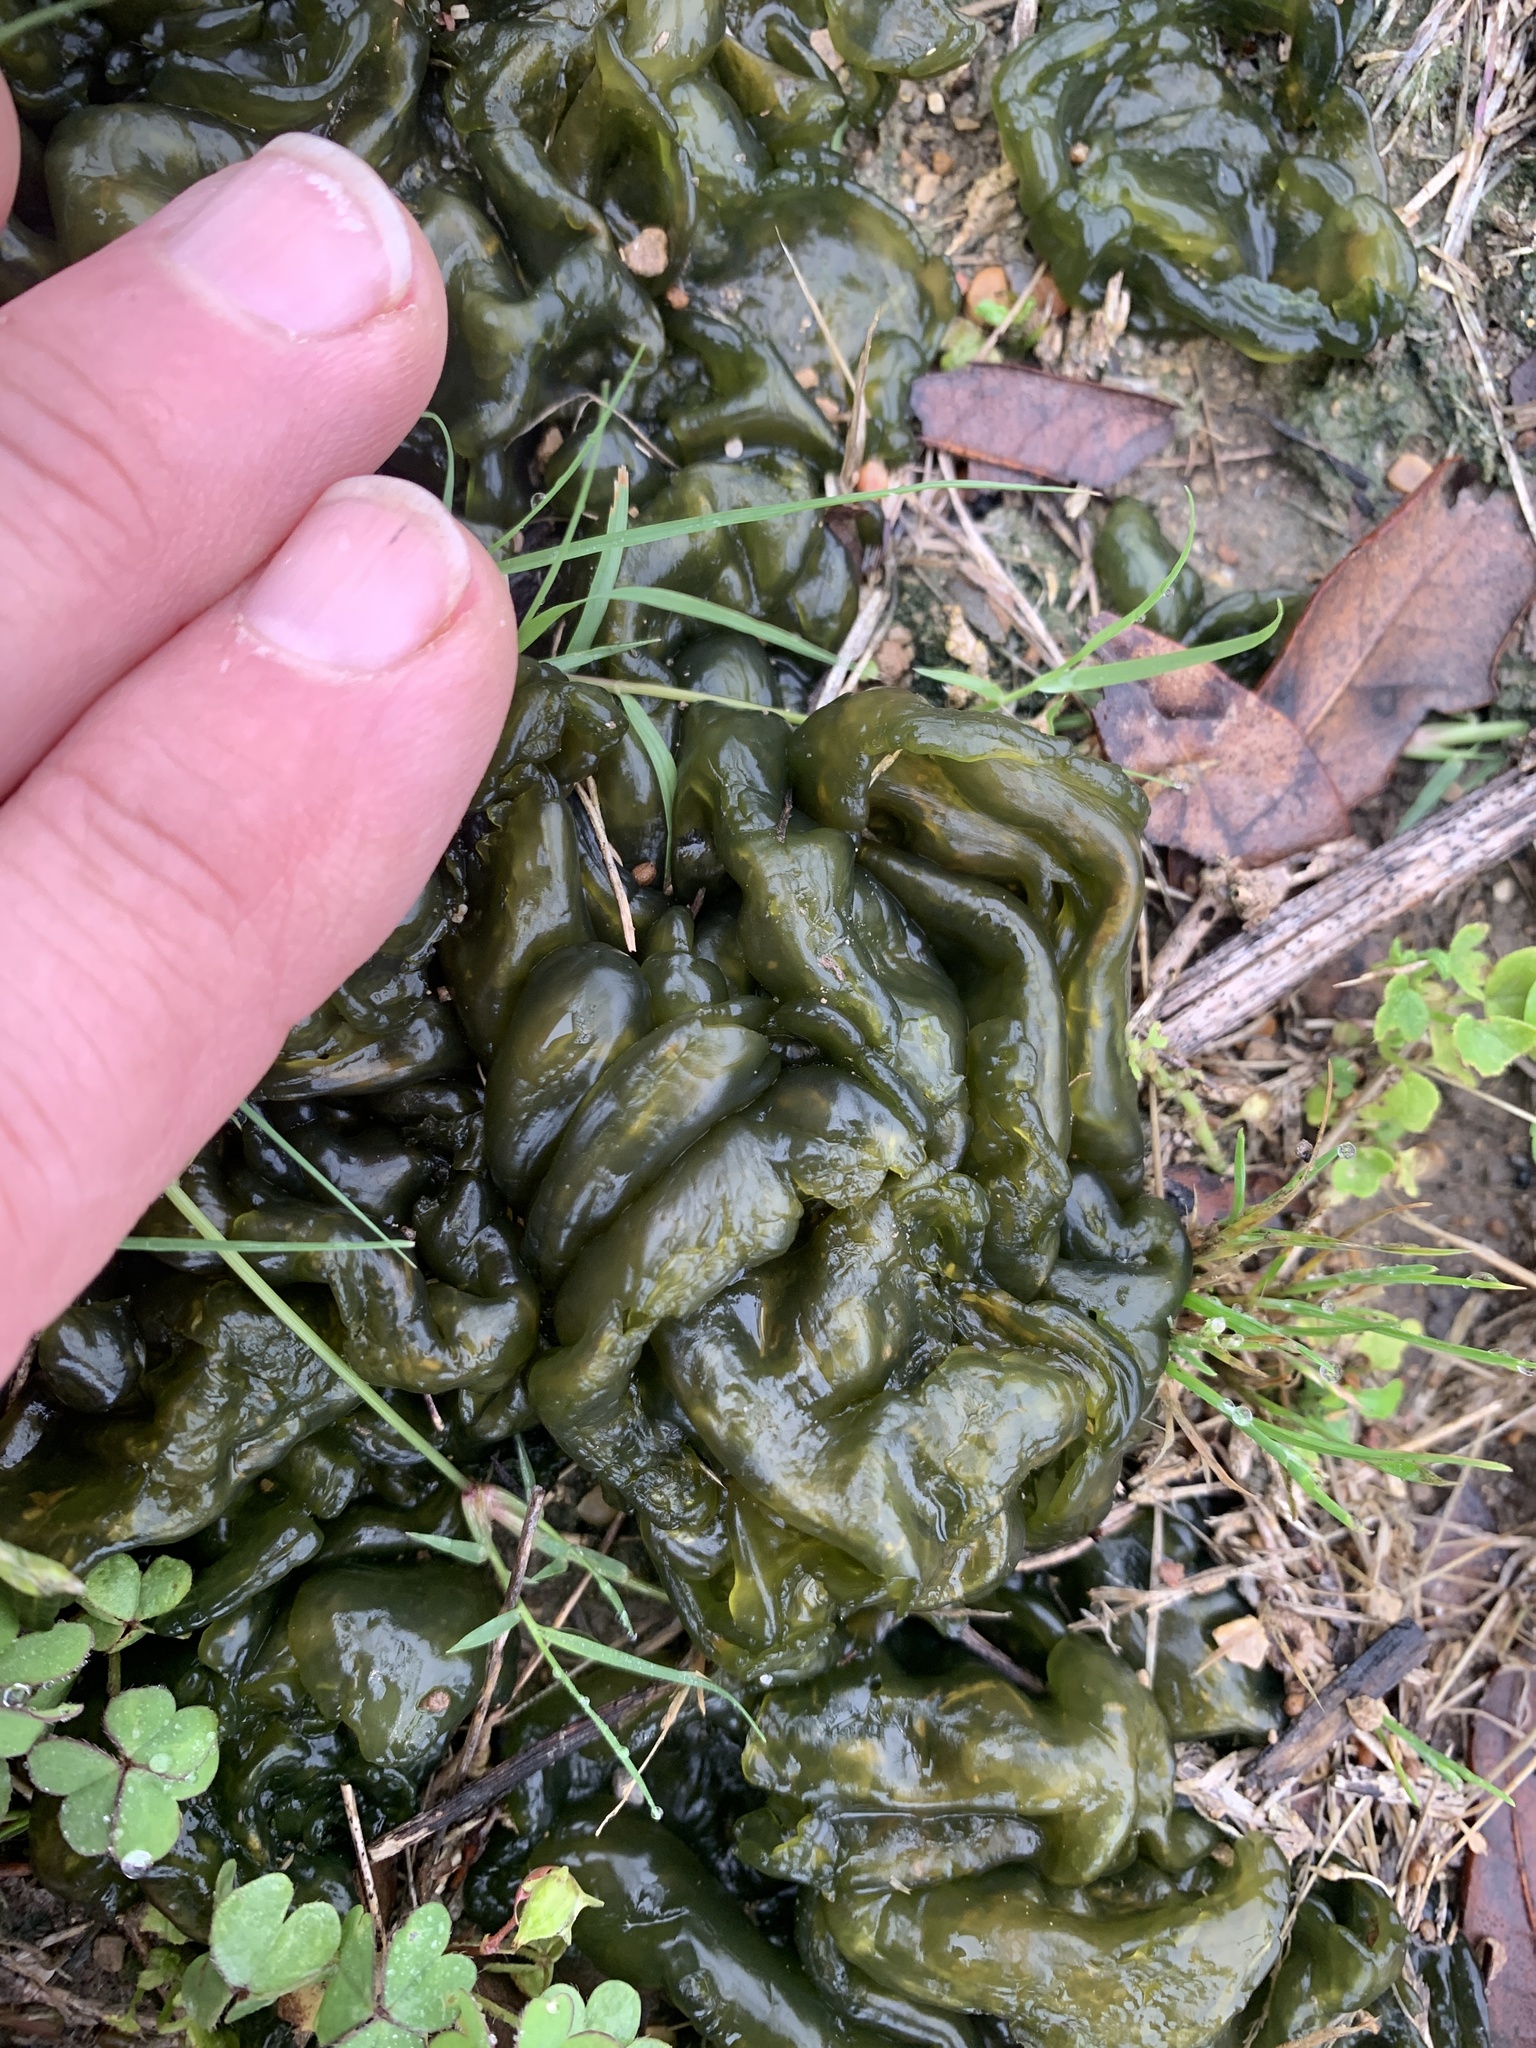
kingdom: Bacteria
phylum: Cyanobacteria
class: Cyanobacteriia
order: Cyanobacteriales
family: Nostocaceae
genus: Nostoc
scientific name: Nostoc commune
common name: Star jelly
